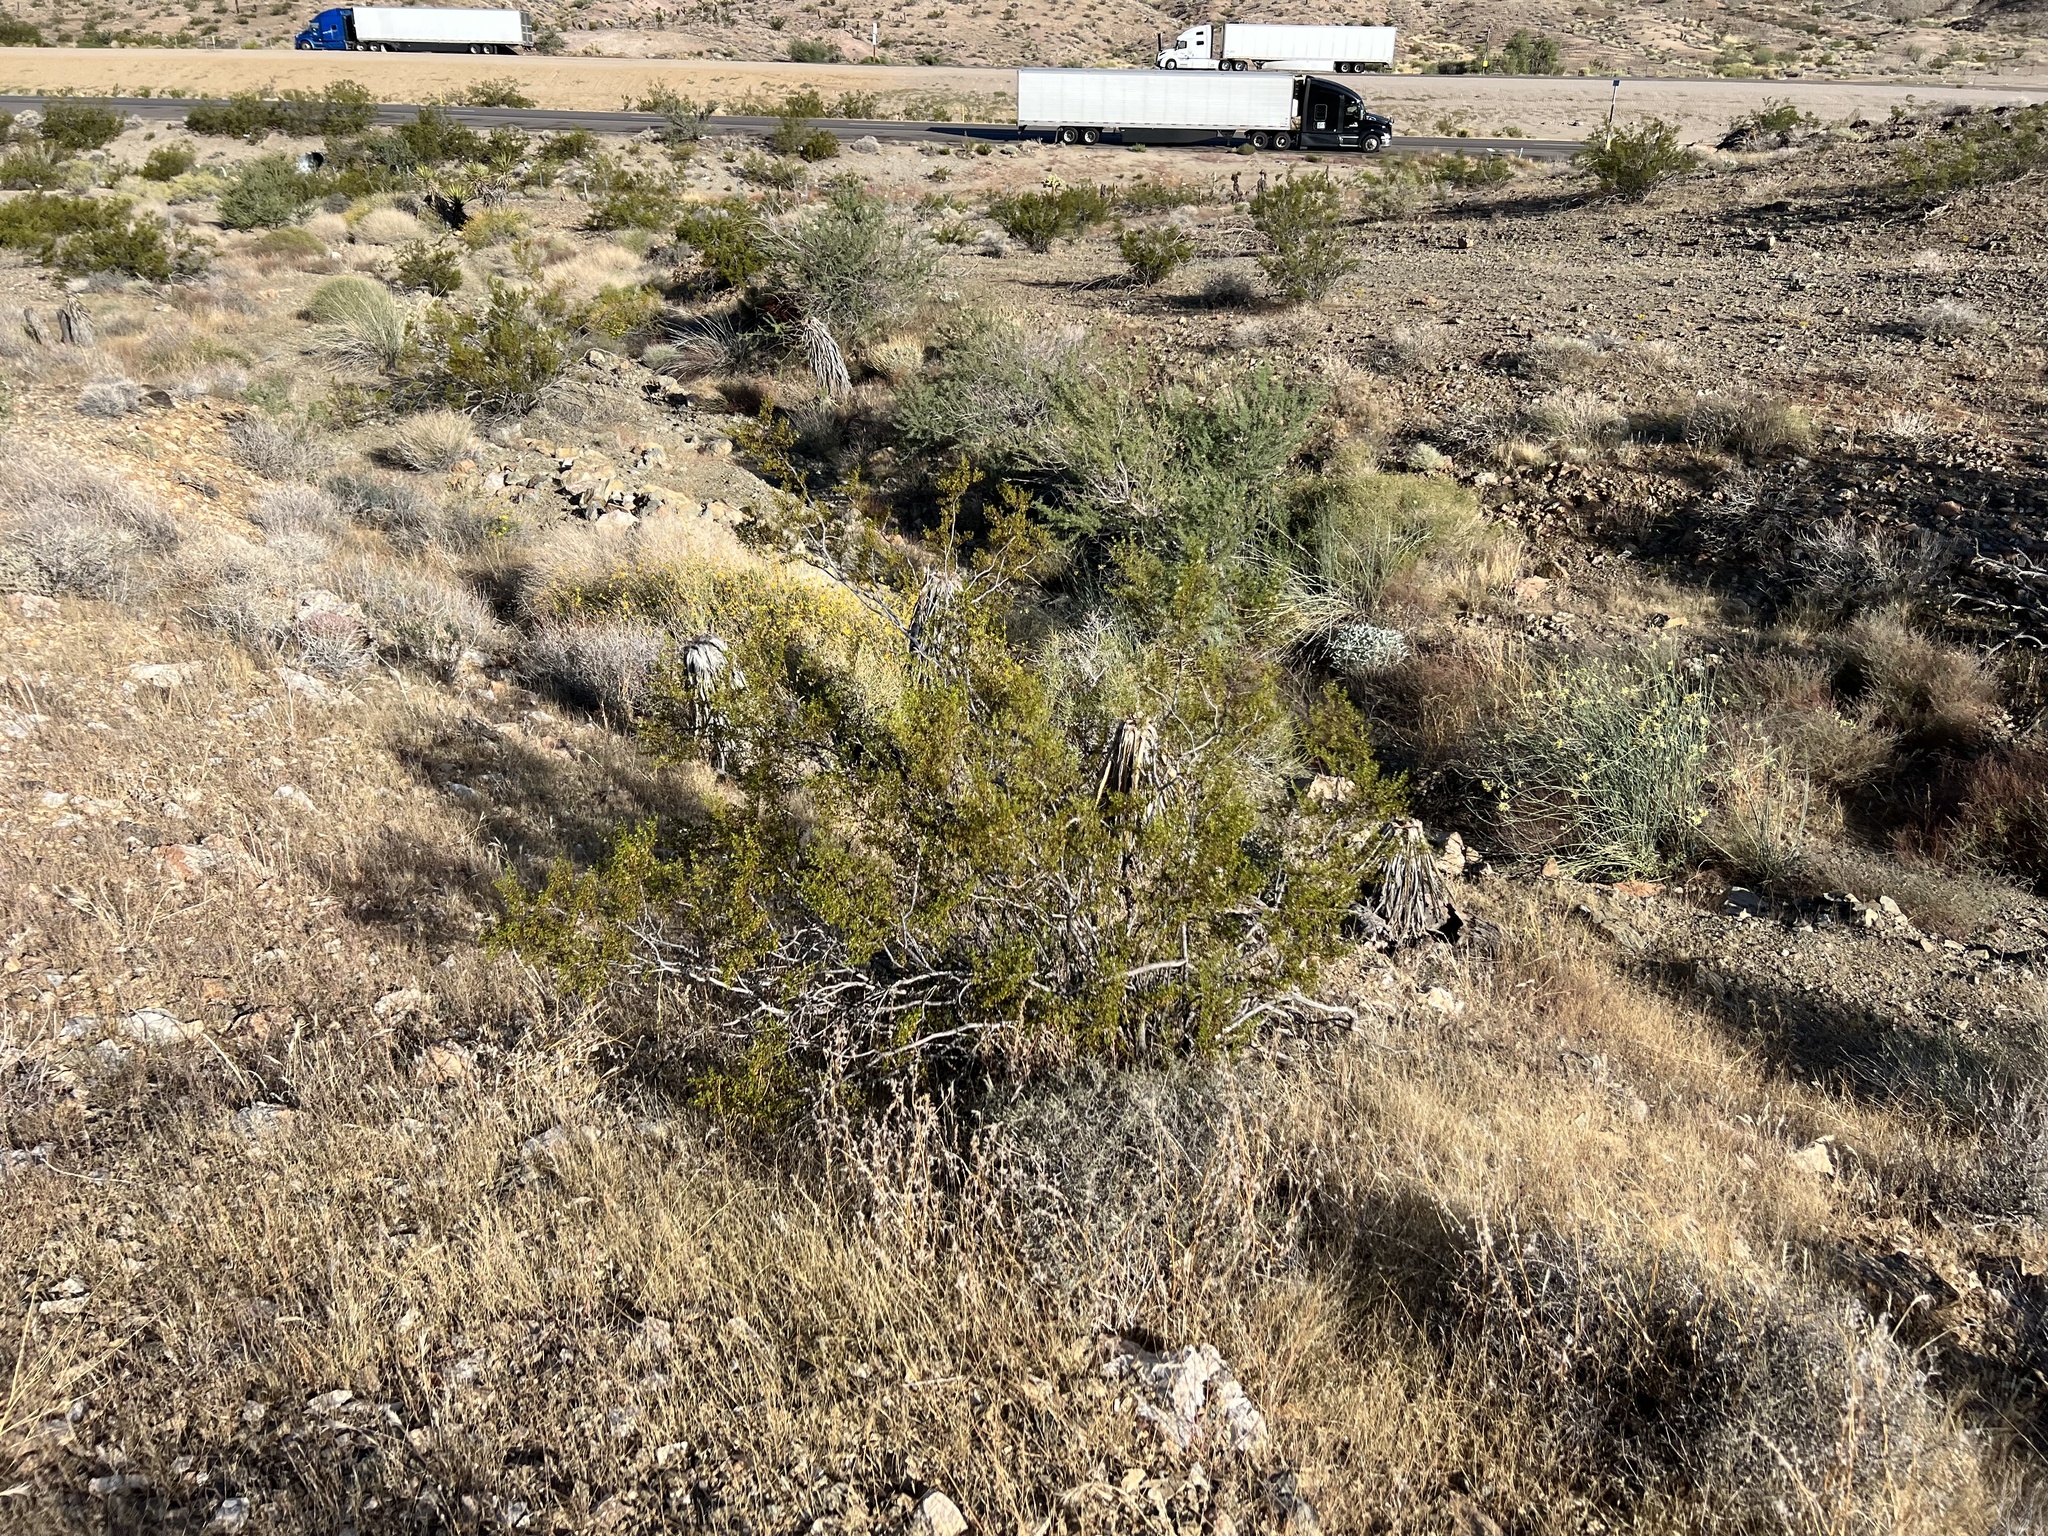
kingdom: Plantae
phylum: Tracheophyta
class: Magnoliopsida
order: Zygophyllales
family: Zygophyllaceae
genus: Larrea
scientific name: Larrea tridentata
